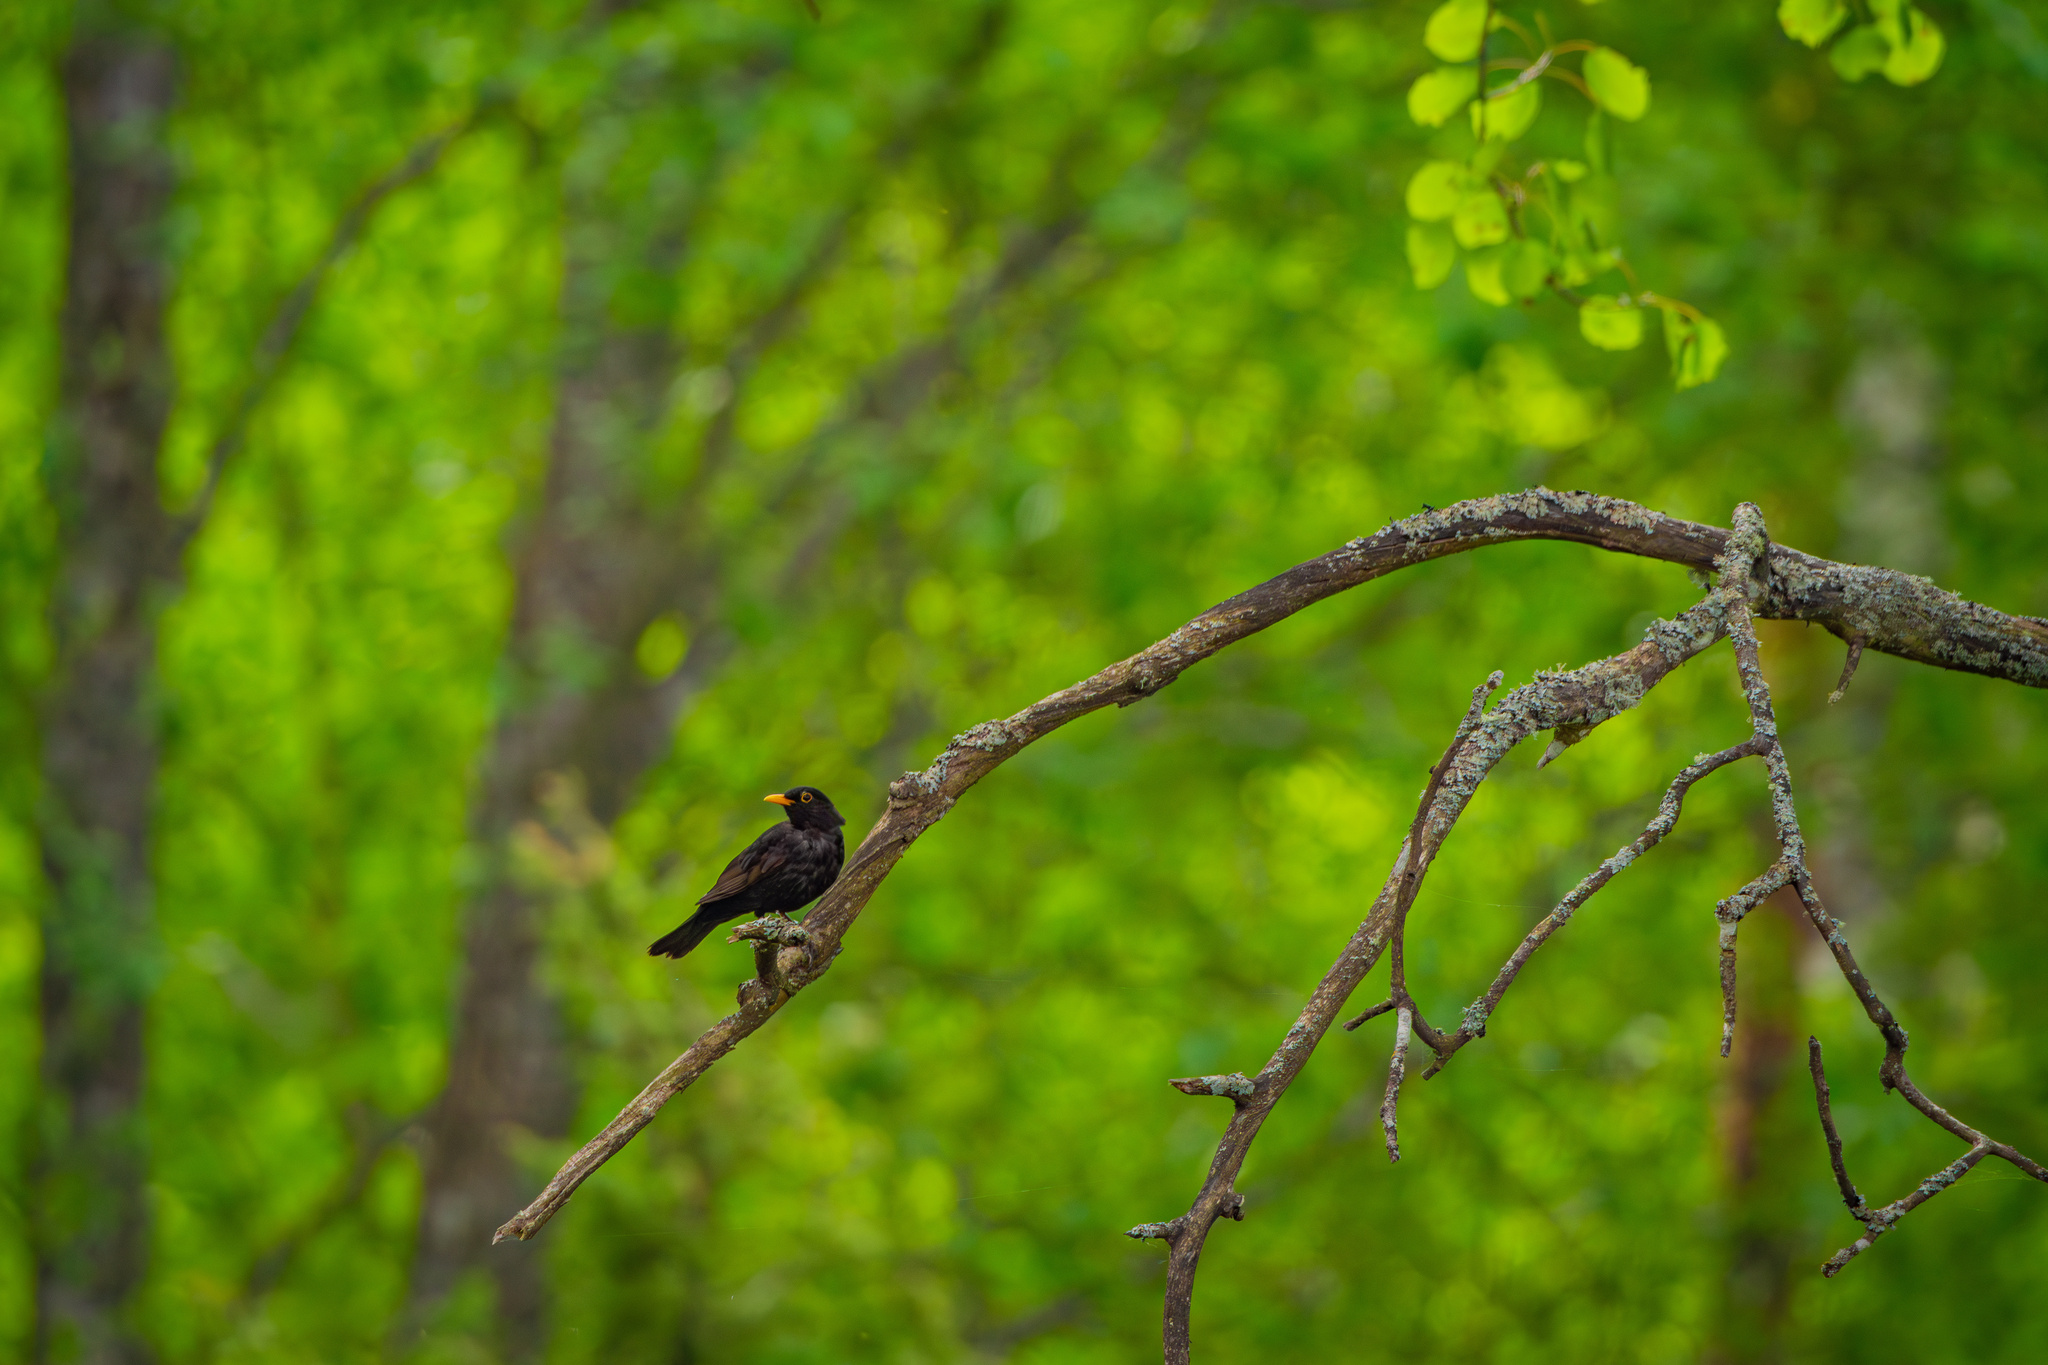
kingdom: Animalia
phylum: Chordata
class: Aves
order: Passeriformes
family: Turdidae
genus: Turdus
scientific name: Turdus merula
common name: Common blackbird
